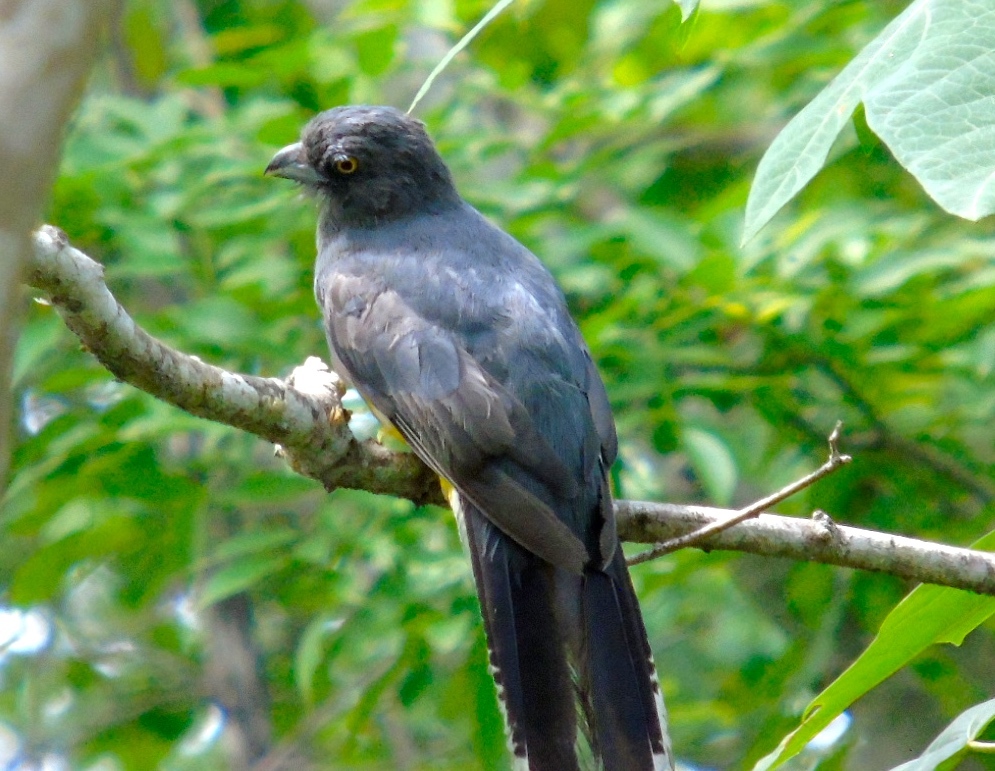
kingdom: Animalia
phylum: Chordata
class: Aves
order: Trogoniformes
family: Trogonidae
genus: Trogon
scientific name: Trogon citreolus
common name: Citreoline trogon
